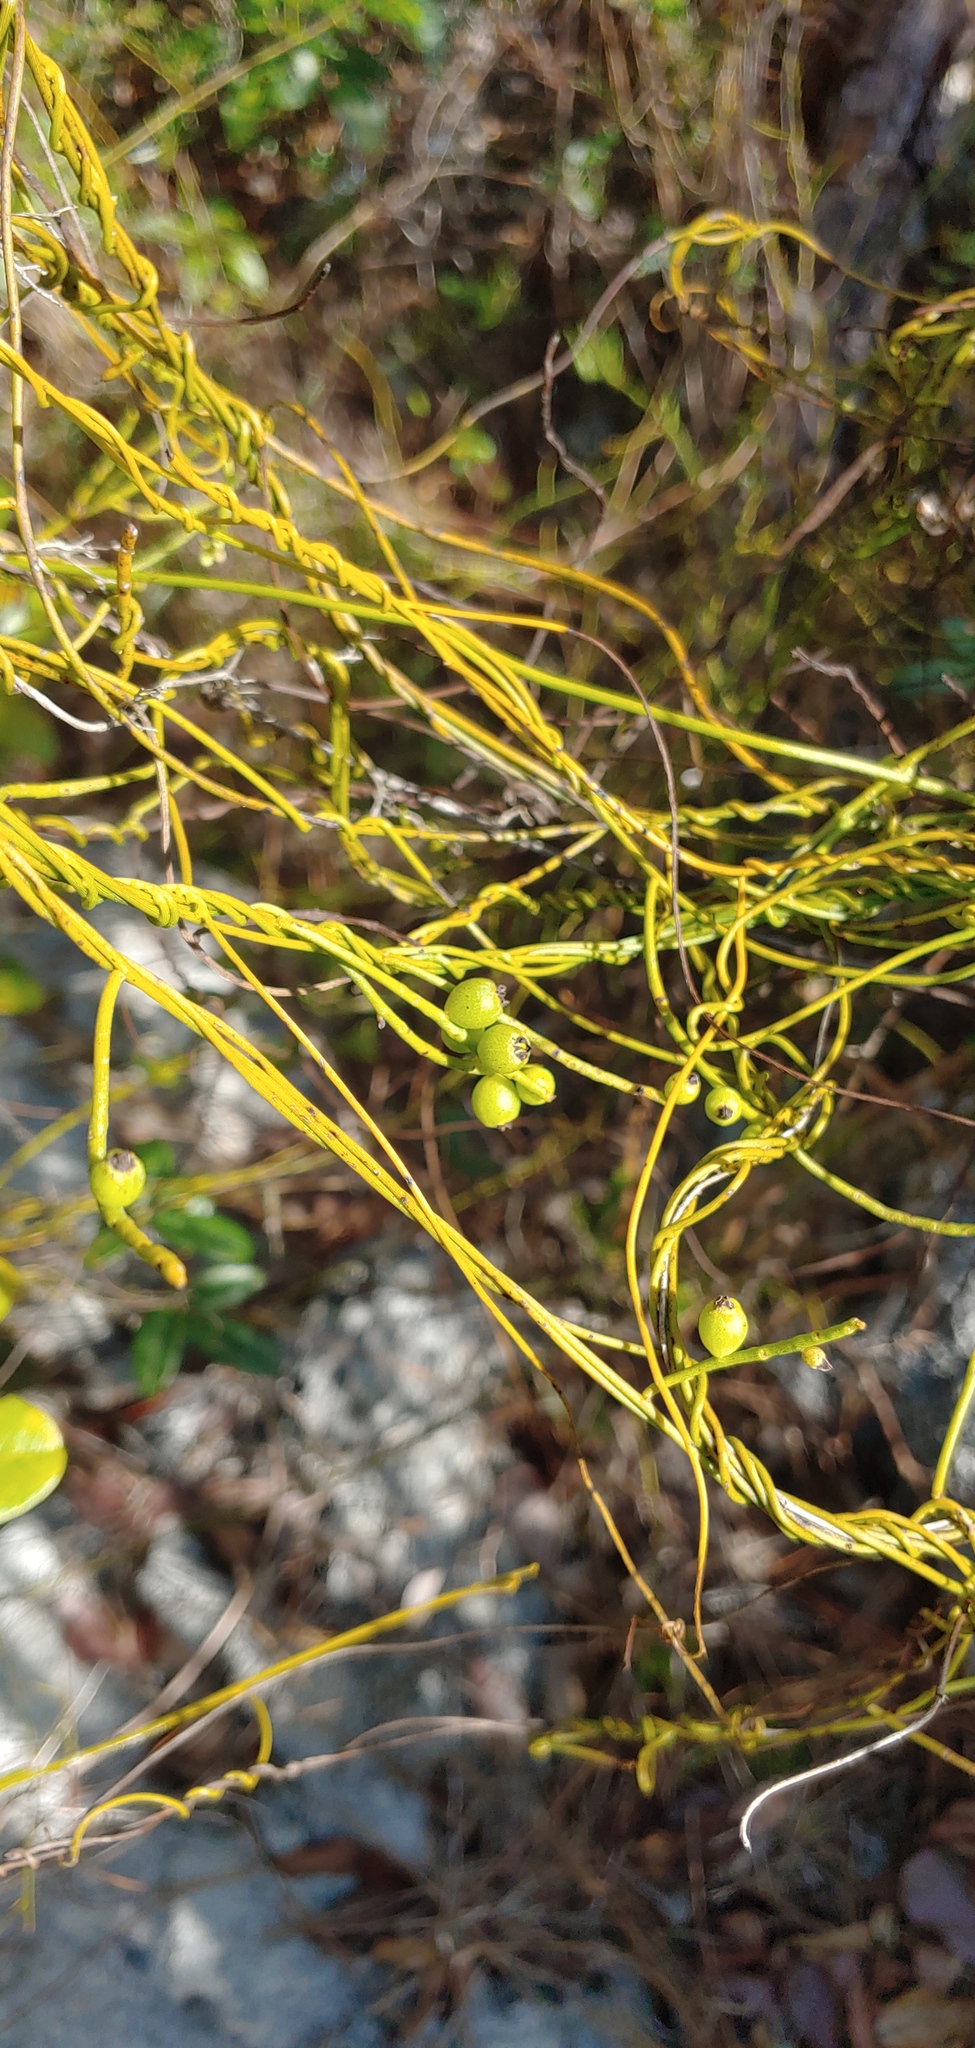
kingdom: Plantae
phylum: Tracheophyta
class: Magnoliopsida
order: Laurales
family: Lauraceae
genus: Cassytha
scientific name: Cassytha filiformis
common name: Dodder-laurel
